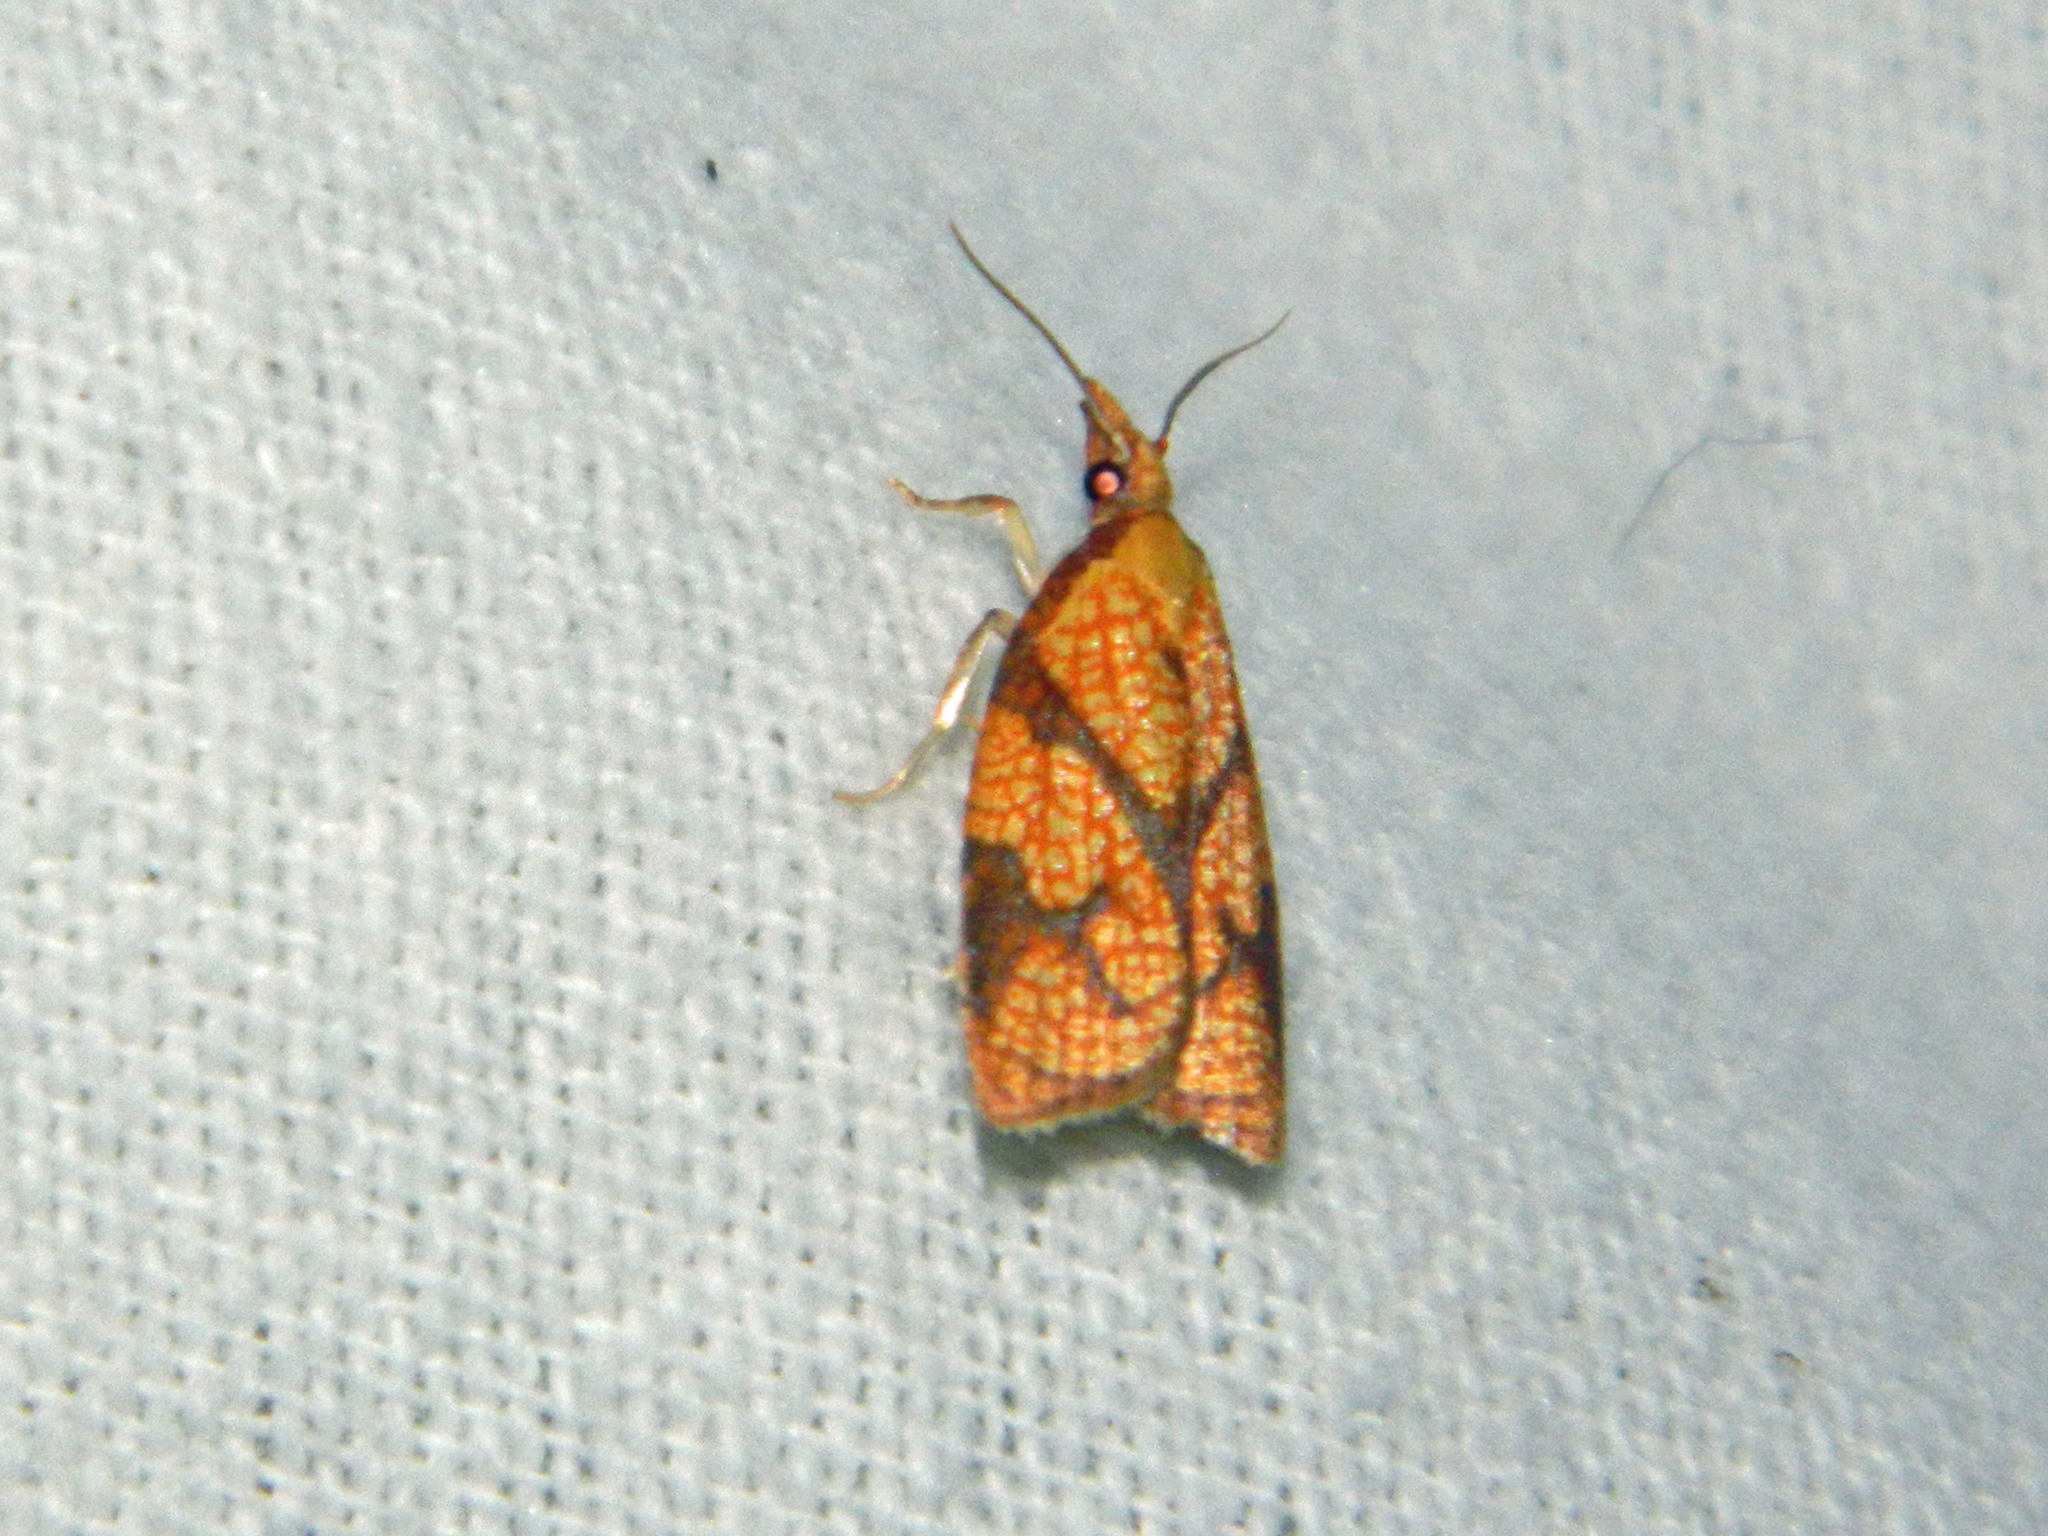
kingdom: Animalia
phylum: Arthropoda
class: Insecta
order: Lepidoptera
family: Tortricidae
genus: Cenopis
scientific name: Cenopis reticulatana
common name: Reticulated fruitworm moth
